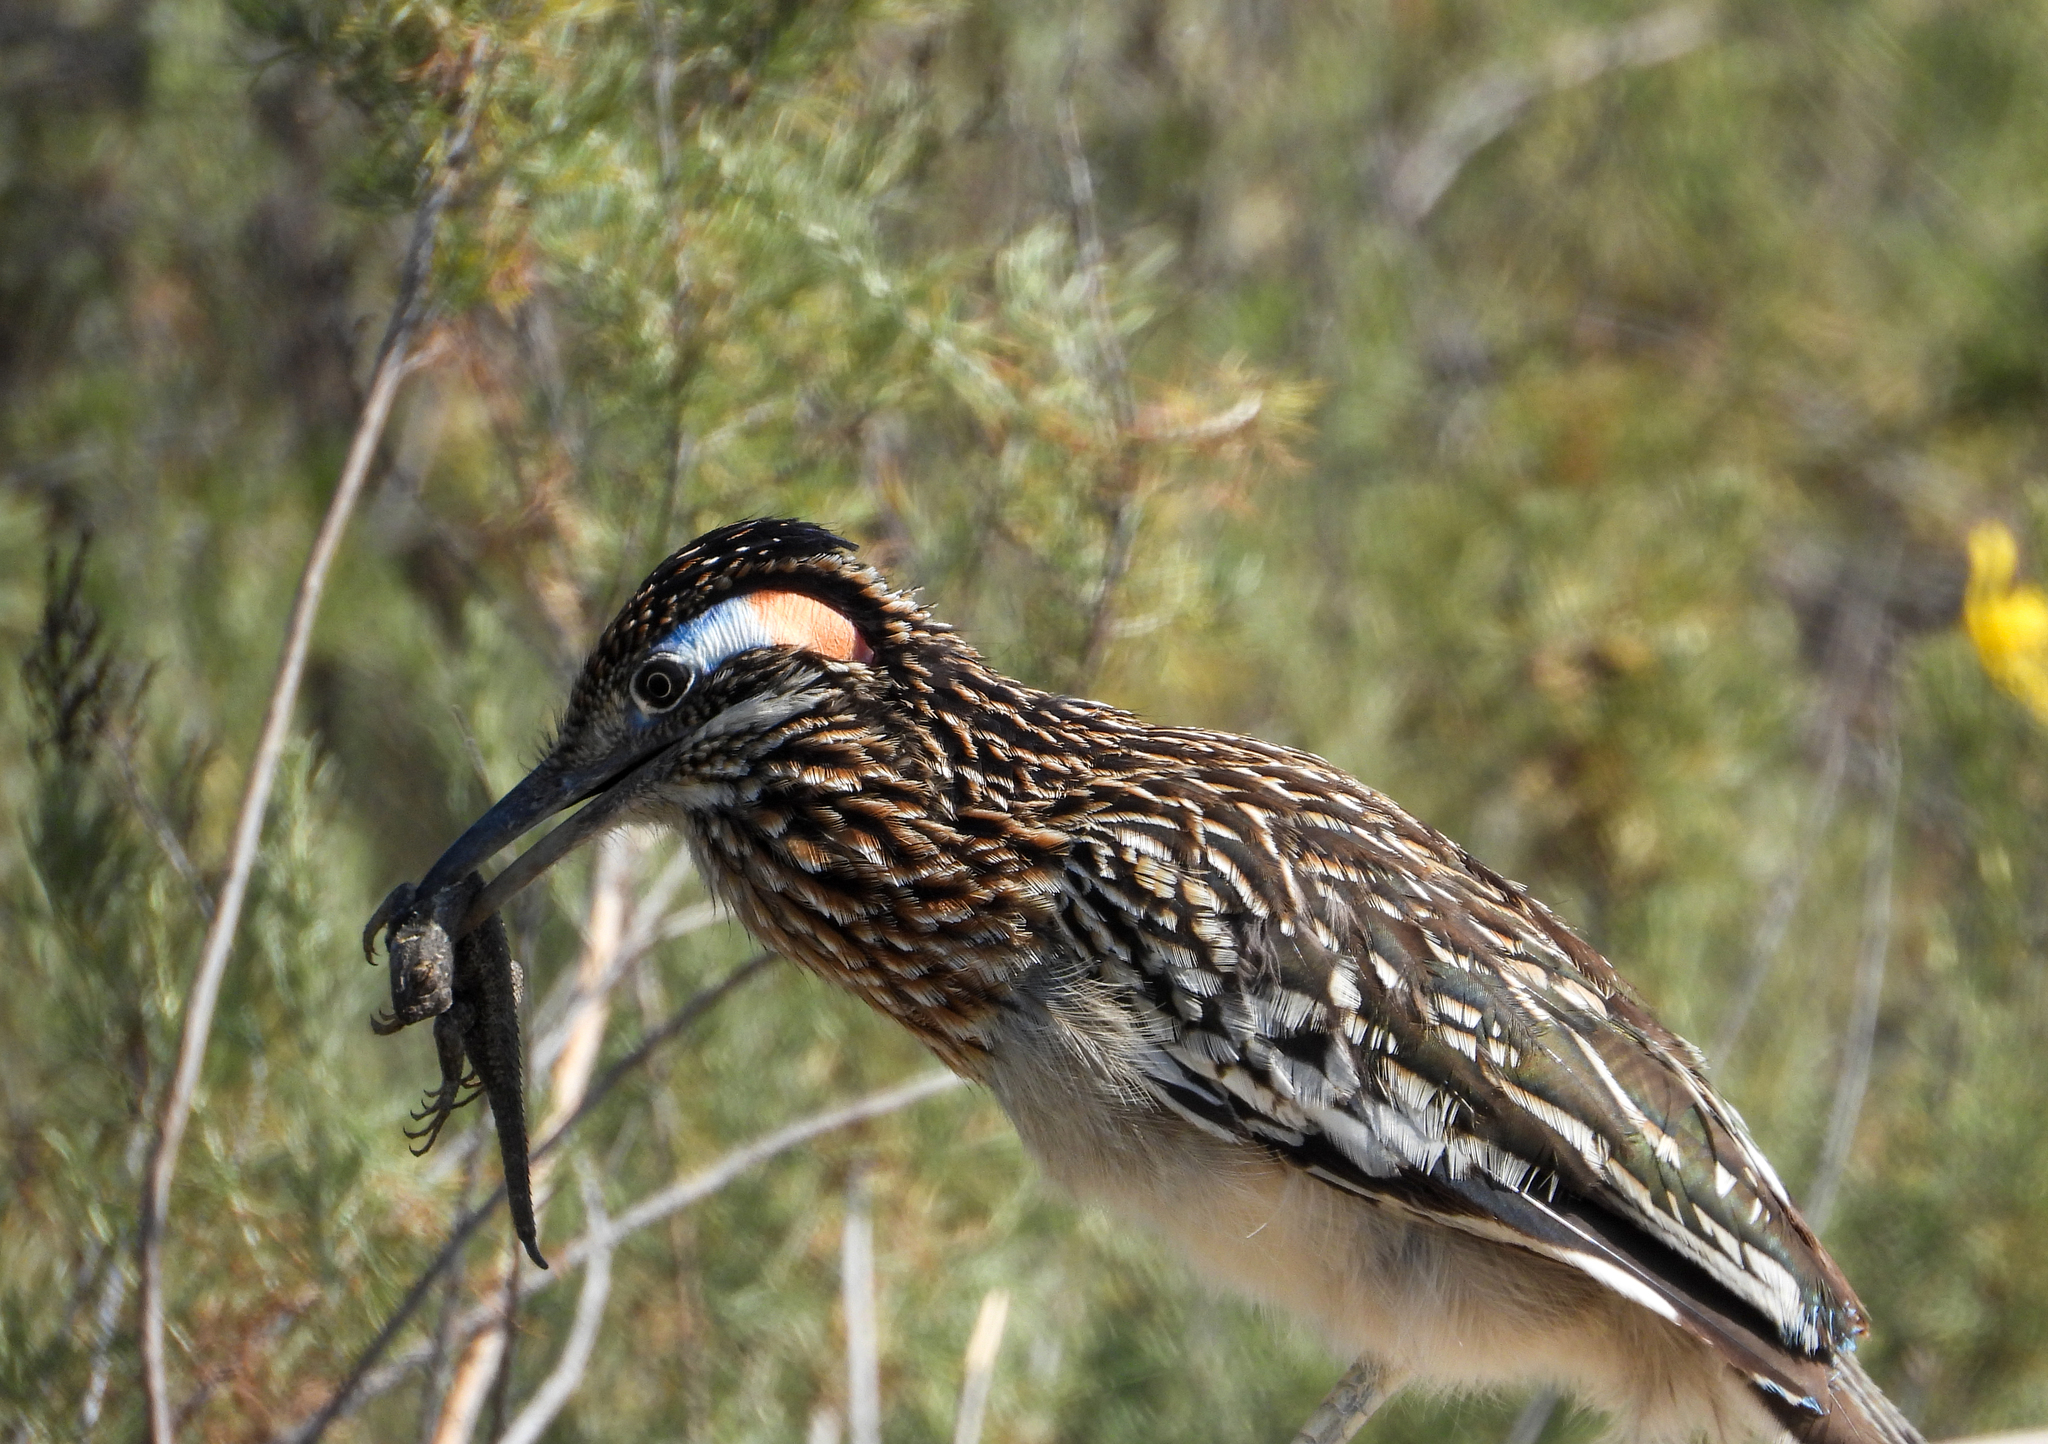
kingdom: Animalia
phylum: Chordata
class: Aves
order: Cuculiformes
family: Cuculidae
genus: Geococcyx
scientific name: Geococcyx californianus
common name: Greater roadrunner
